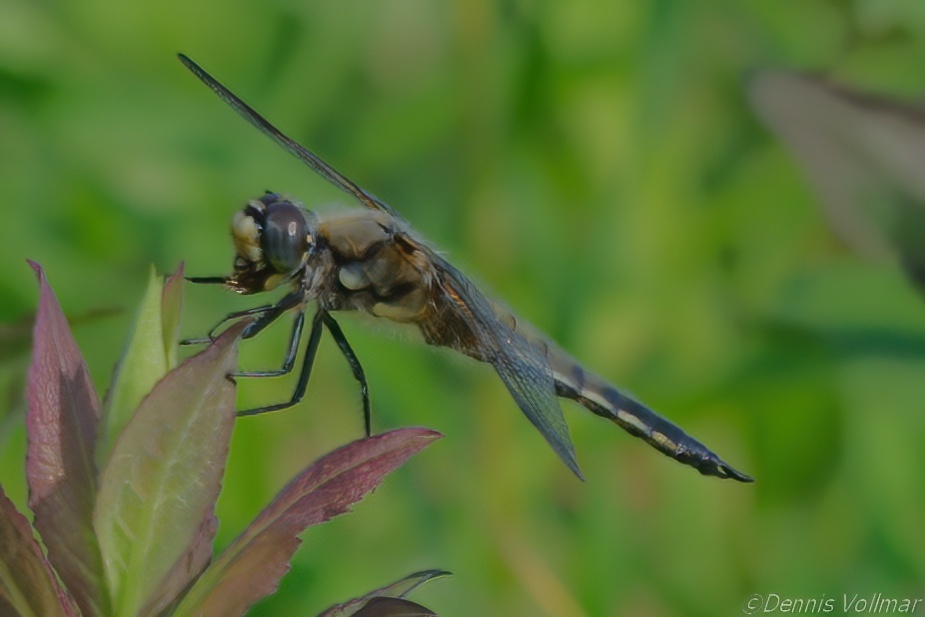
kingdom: Animalia
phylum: Arthropoda
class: Insecta
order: Odonata
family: Libellulidae
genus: Libellula
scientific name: Libellula quadrimaculata
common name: Four-spotted chaser
